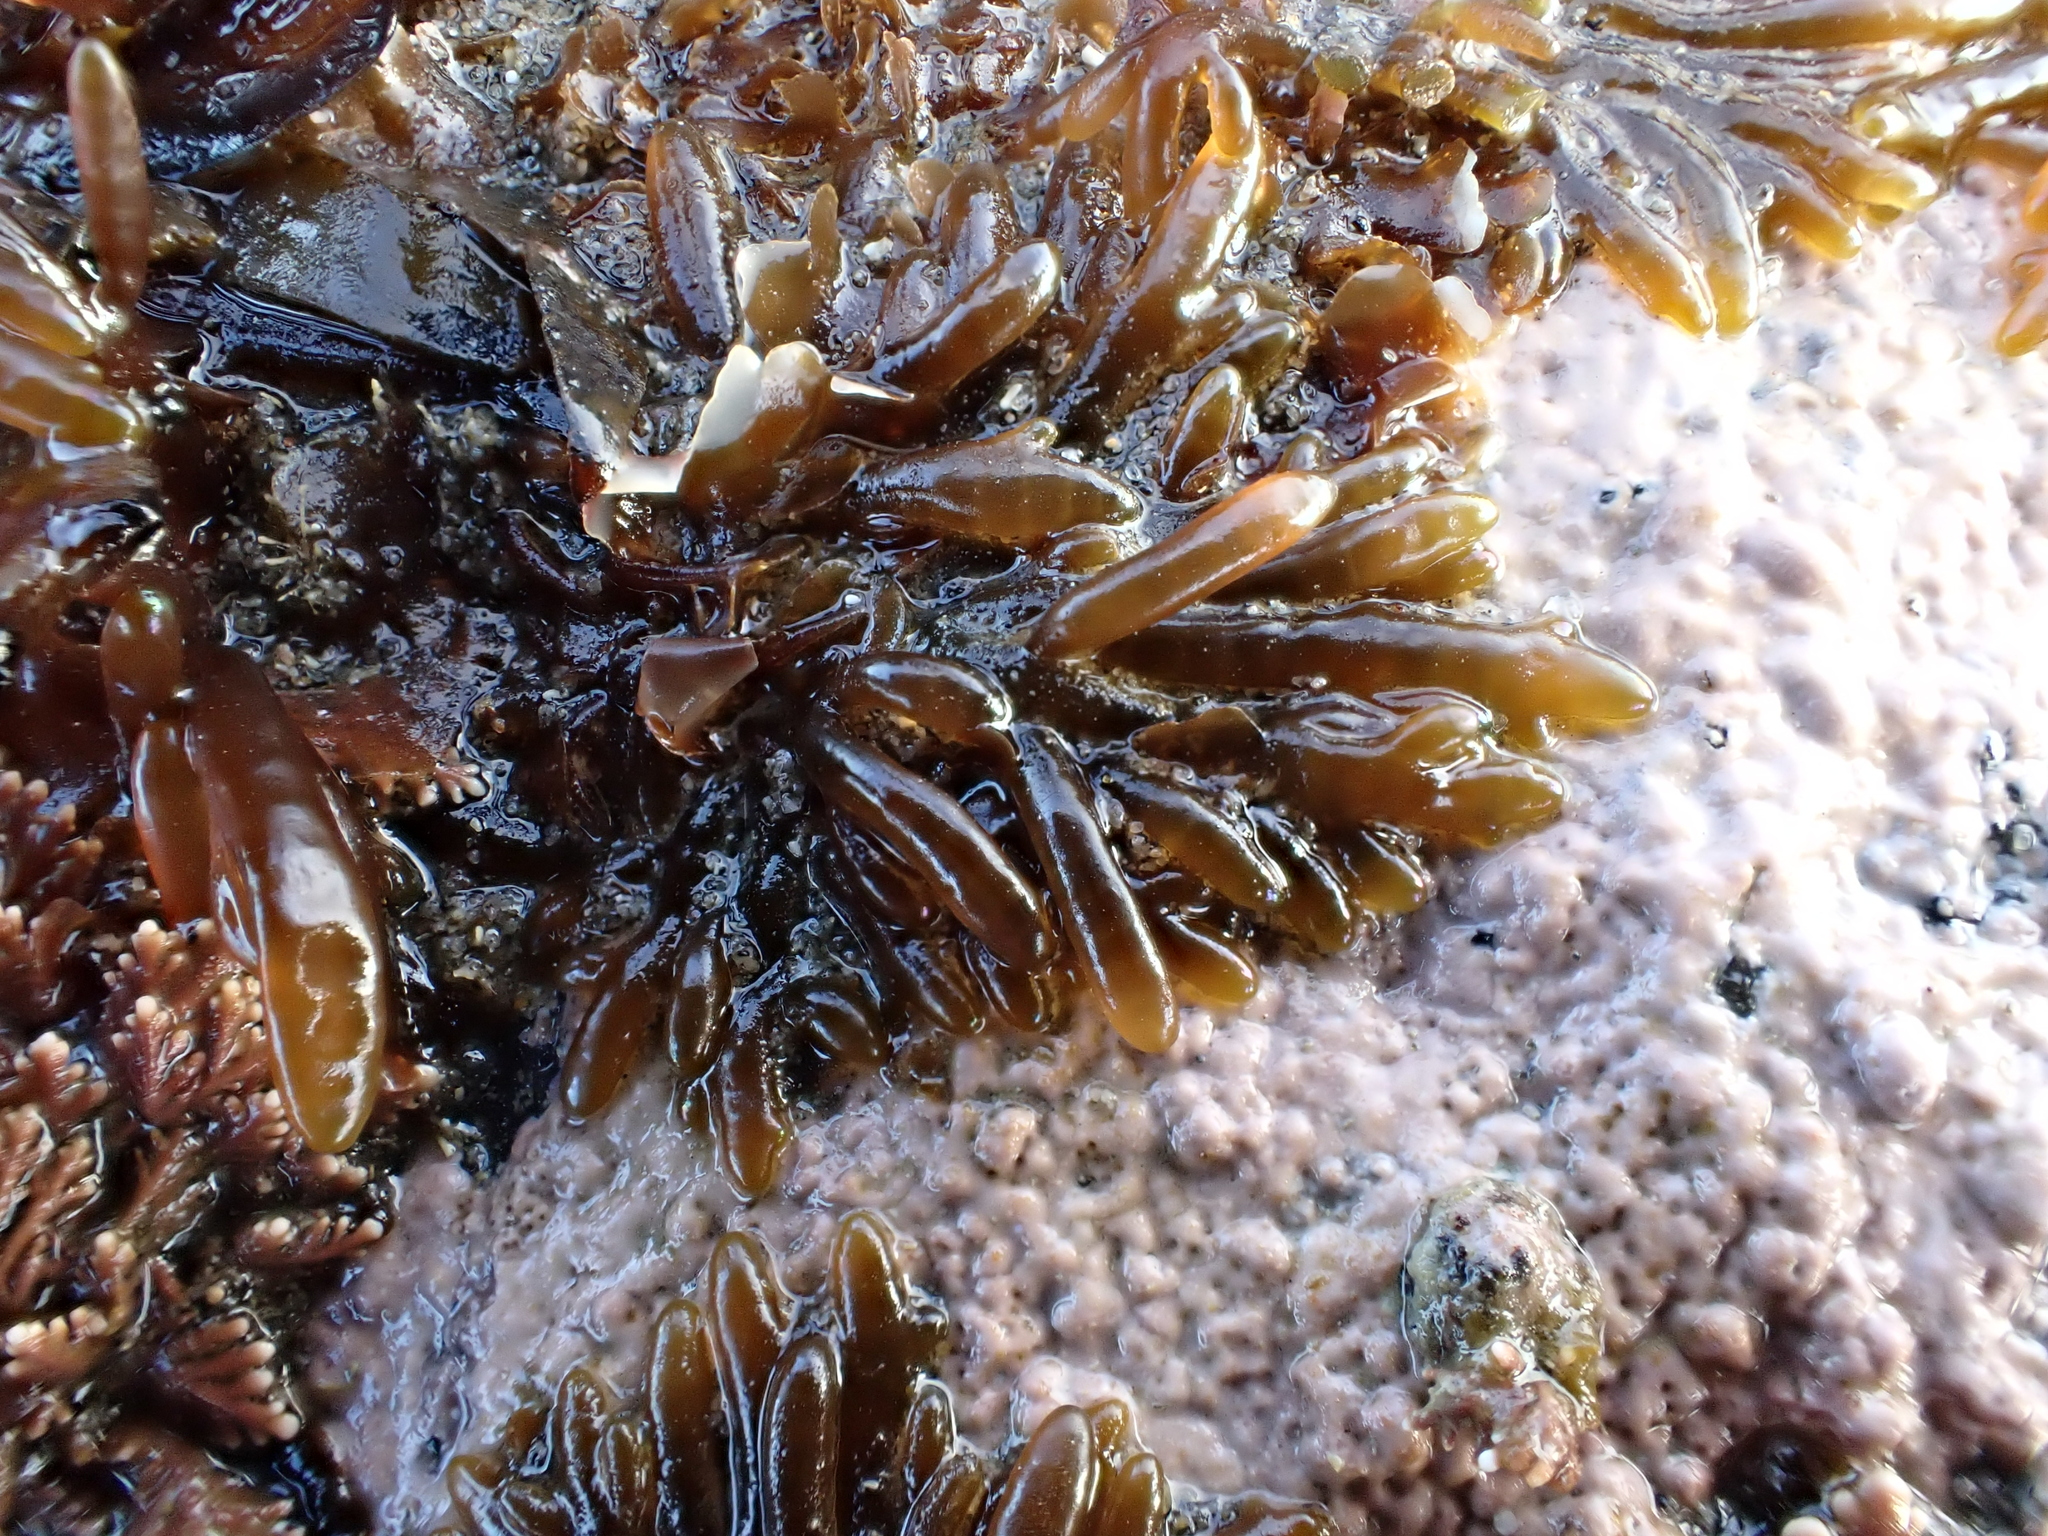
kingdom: Plantae
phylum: Rhodophyta
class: Florideophyceae
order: Rhodymeniales
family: Champiaceae
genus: Champia
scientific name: Champia novae-zelandiae
